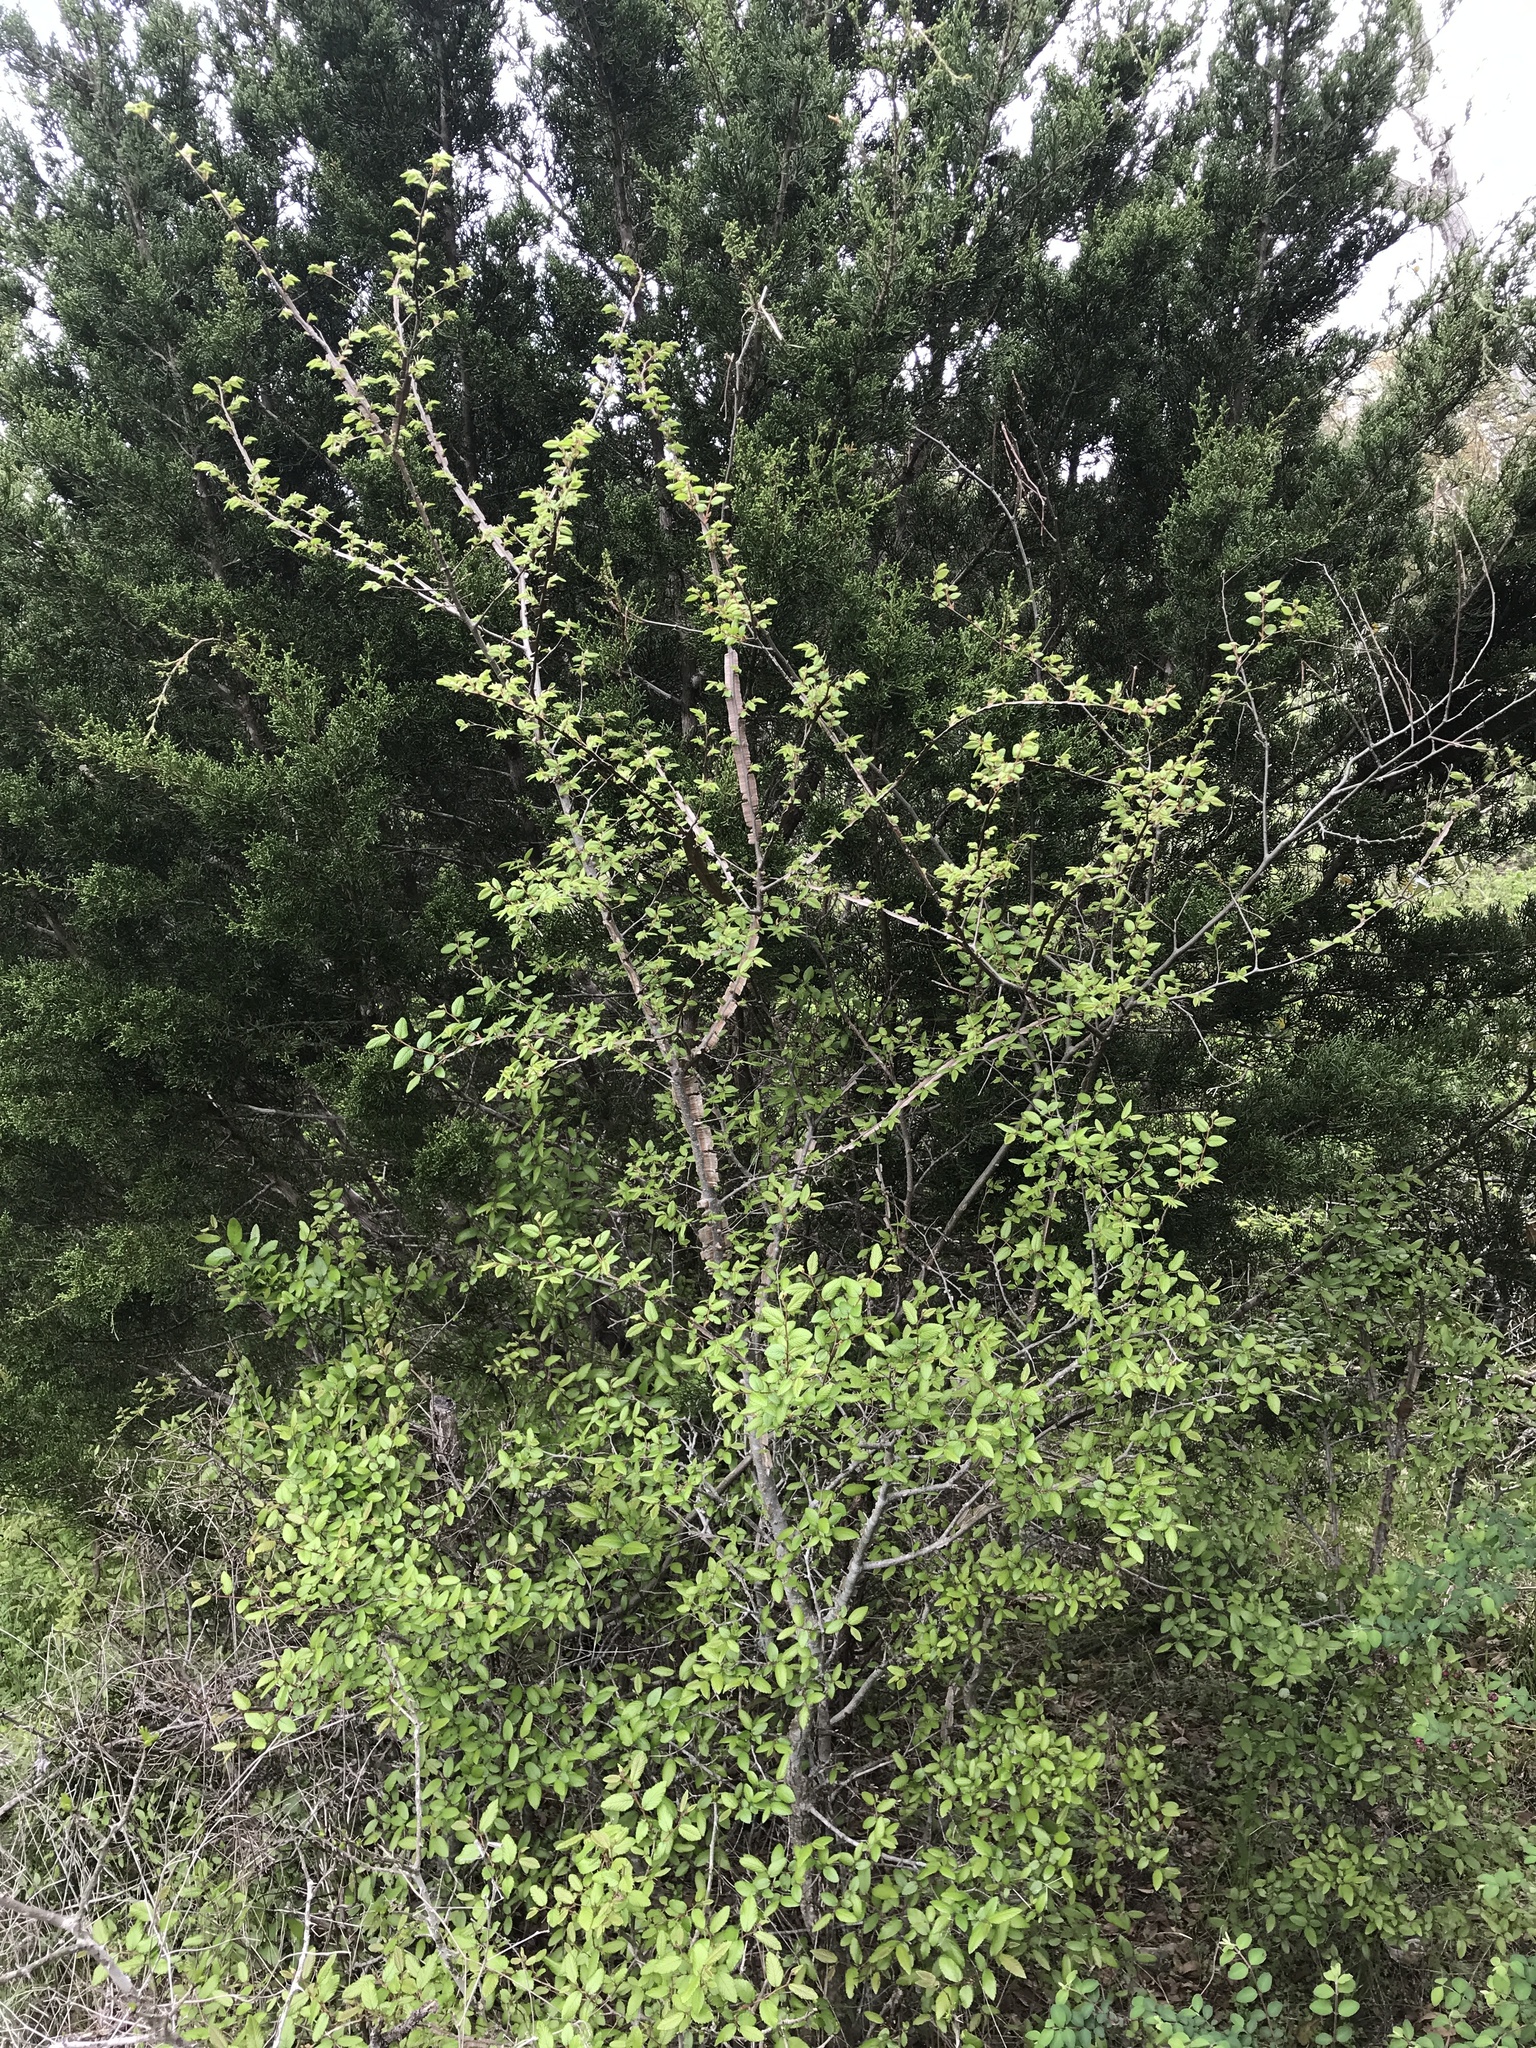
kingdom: Plantae
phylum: Tracheophyta
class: Magnoliopsida
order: Rosales
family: Ulmaceae
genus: Ulmus
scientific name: Ulmus crassifolia
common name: Basket elm
